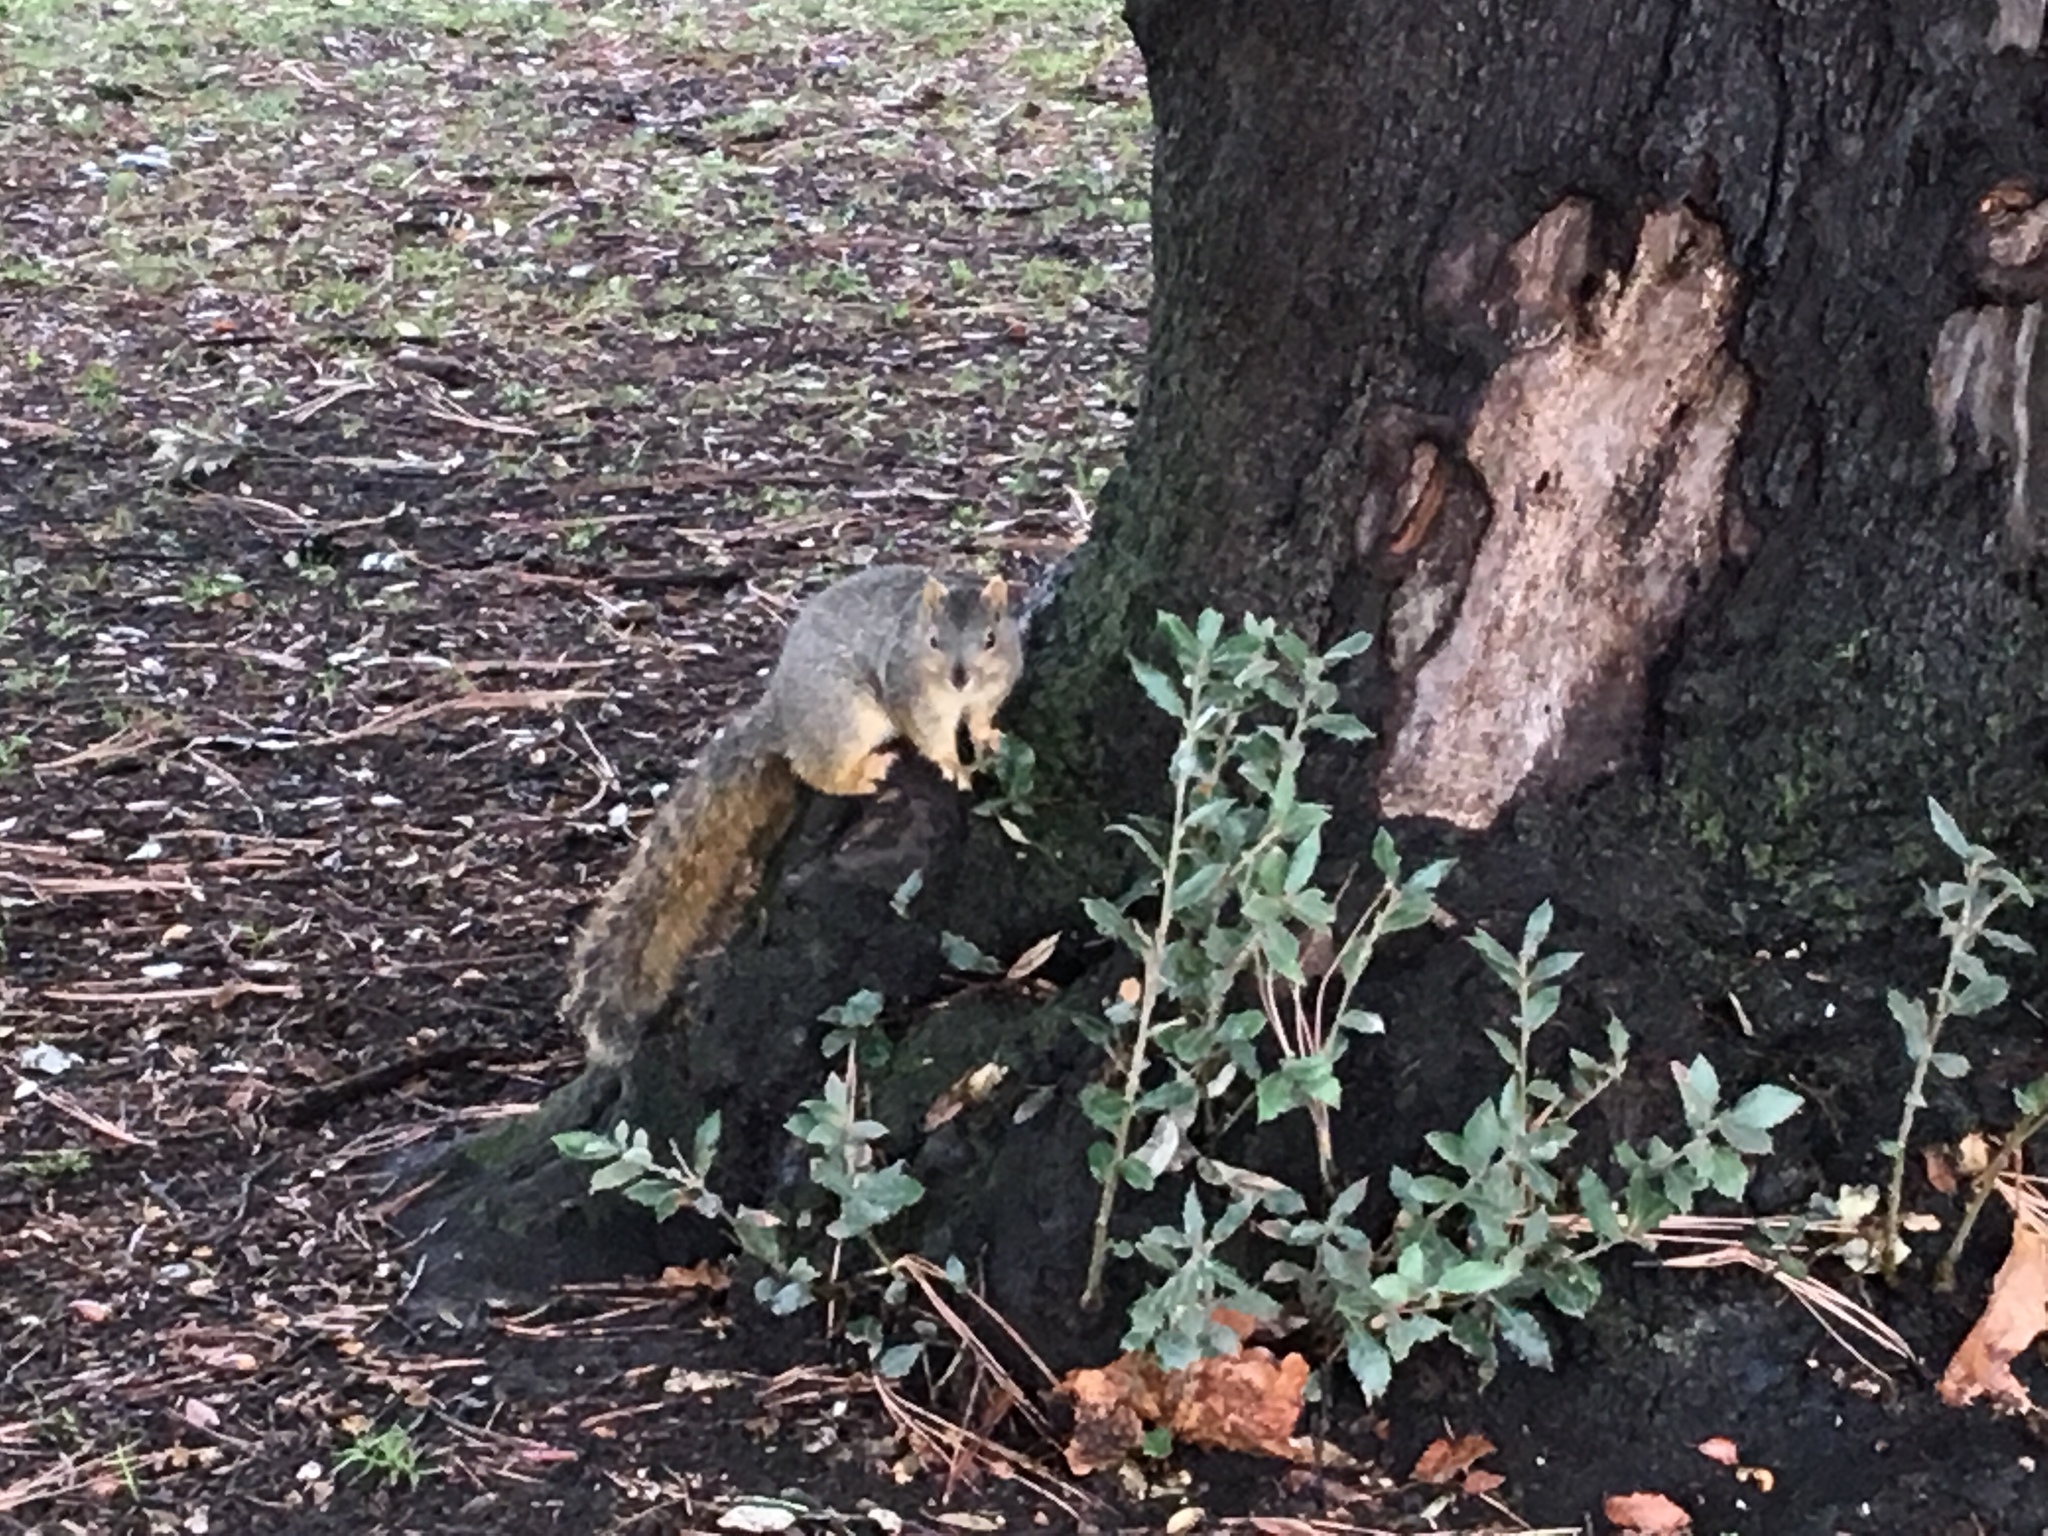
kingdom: Animalia
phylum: Chordata
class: Mammalia
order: Rodentia
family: Sciuridae
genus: Sciurus
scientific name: Sciurus niger
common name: Fox squirrel
